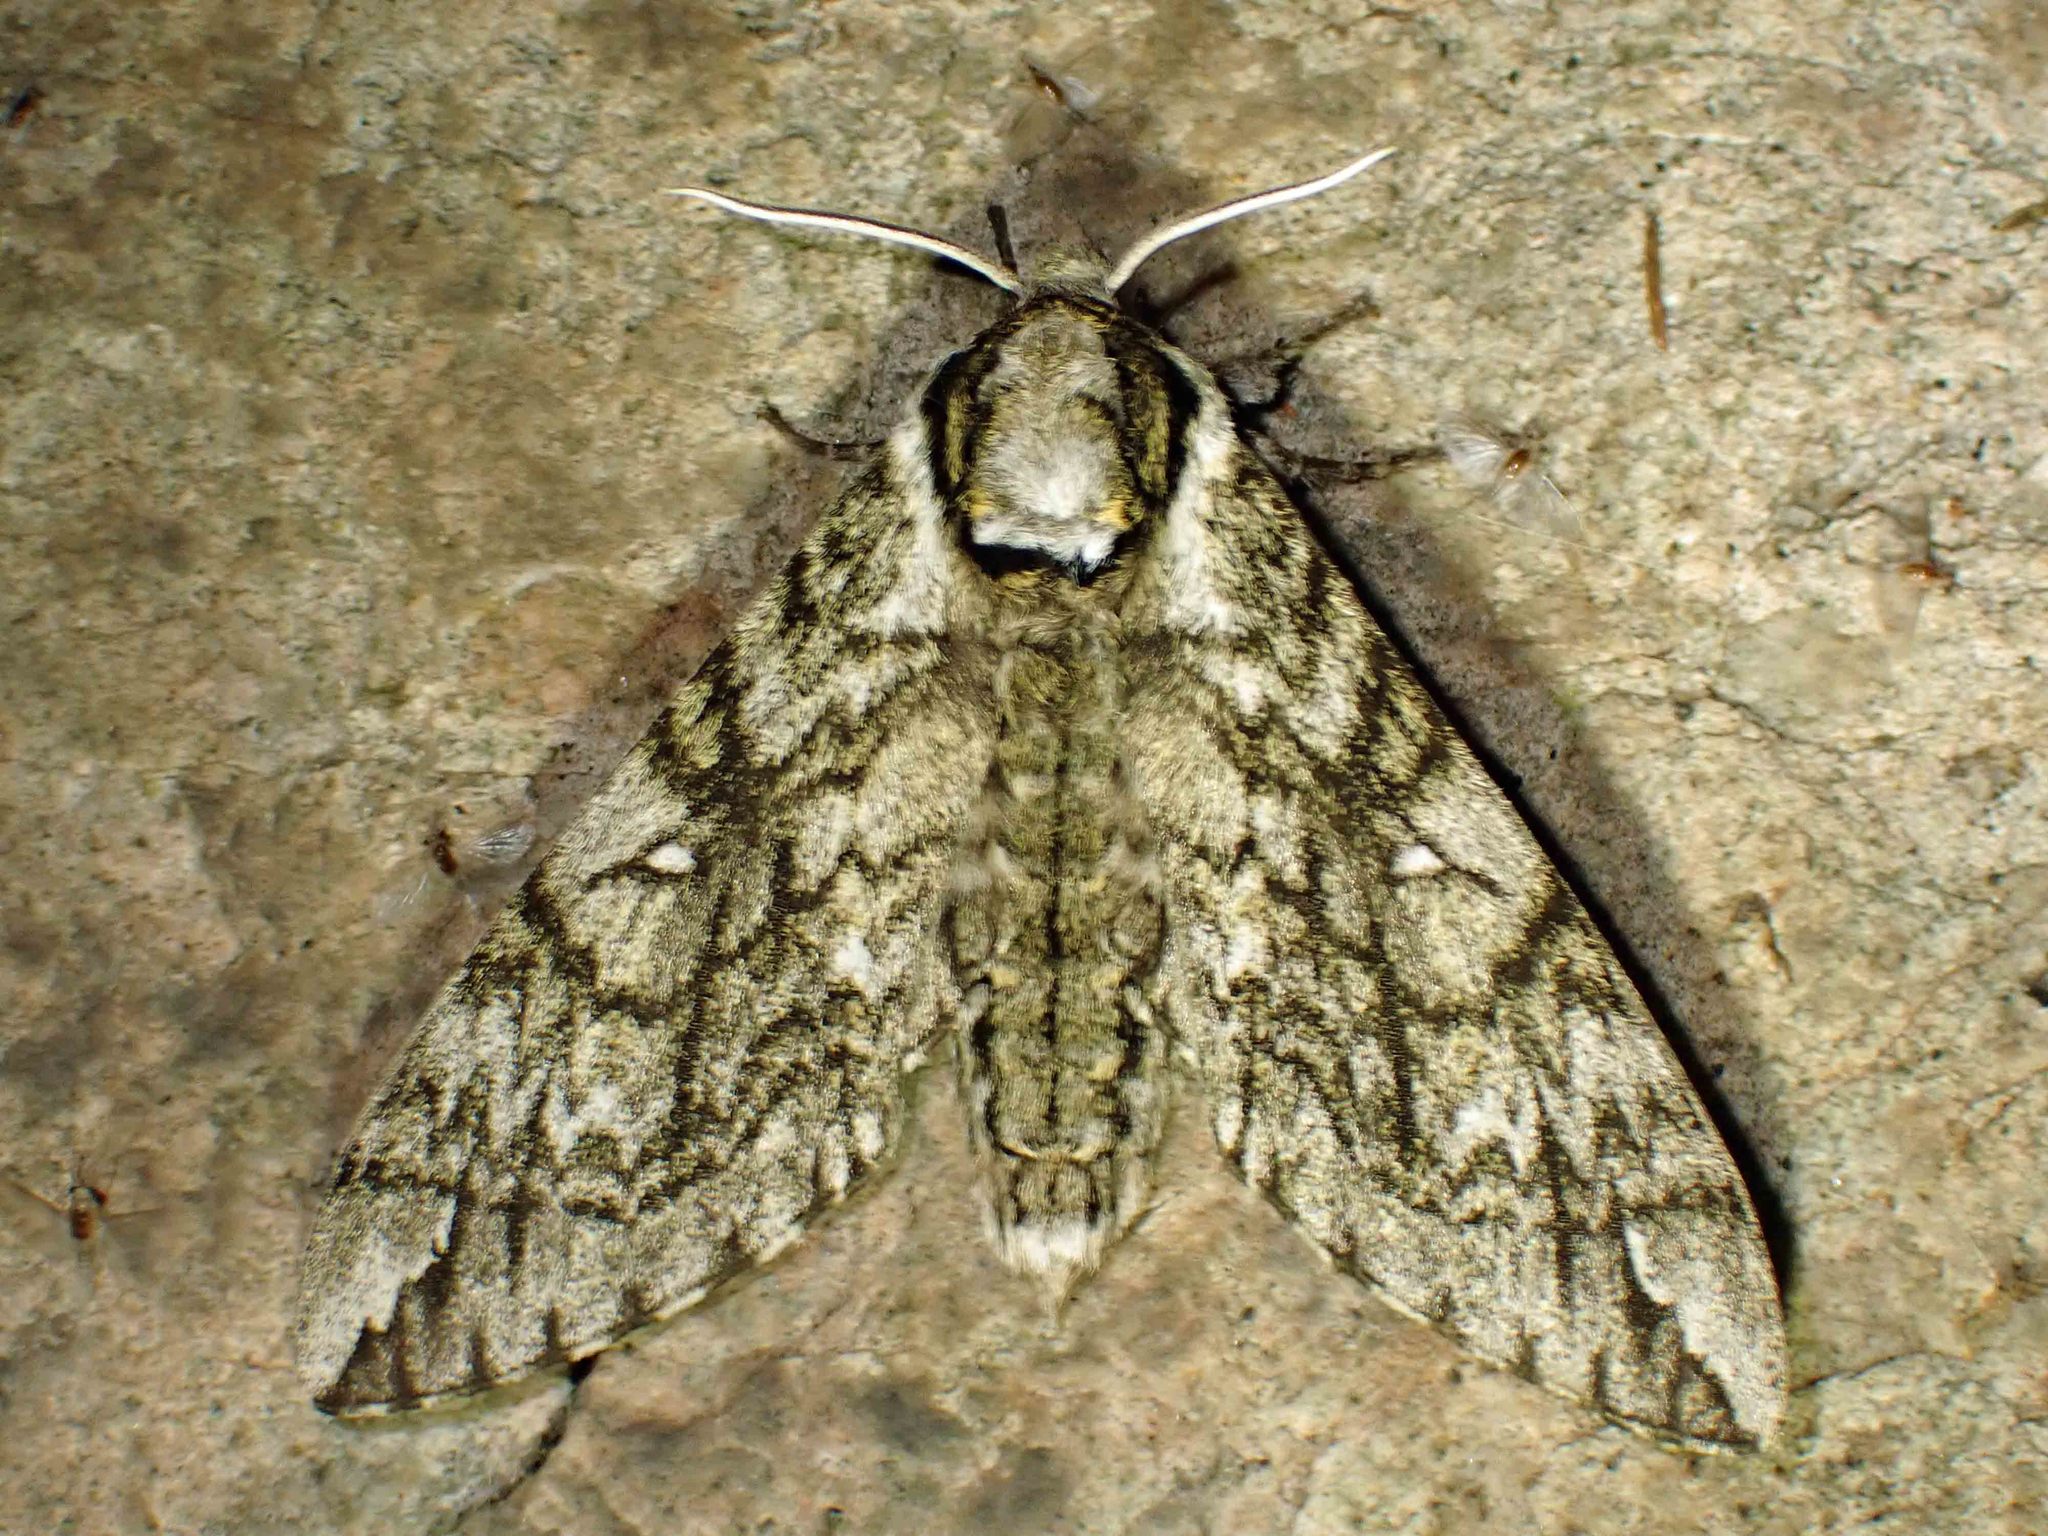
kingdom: Animalia
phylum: Arthropoda
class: Insecta
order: Lepidoptera
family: Sphingidae
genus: Ceratomia
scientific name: Ceratomia undulosa
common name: Waved sphinx
